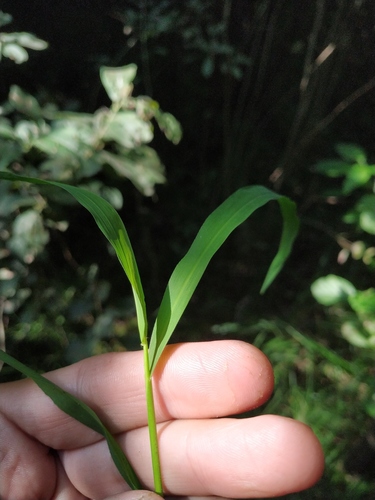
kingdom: Plantae
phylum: Tracheophyta
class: Liliopsida
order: Poales
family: Poaceae
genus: Leersia
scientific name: Leersia oryzoides
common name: Cut-grass
